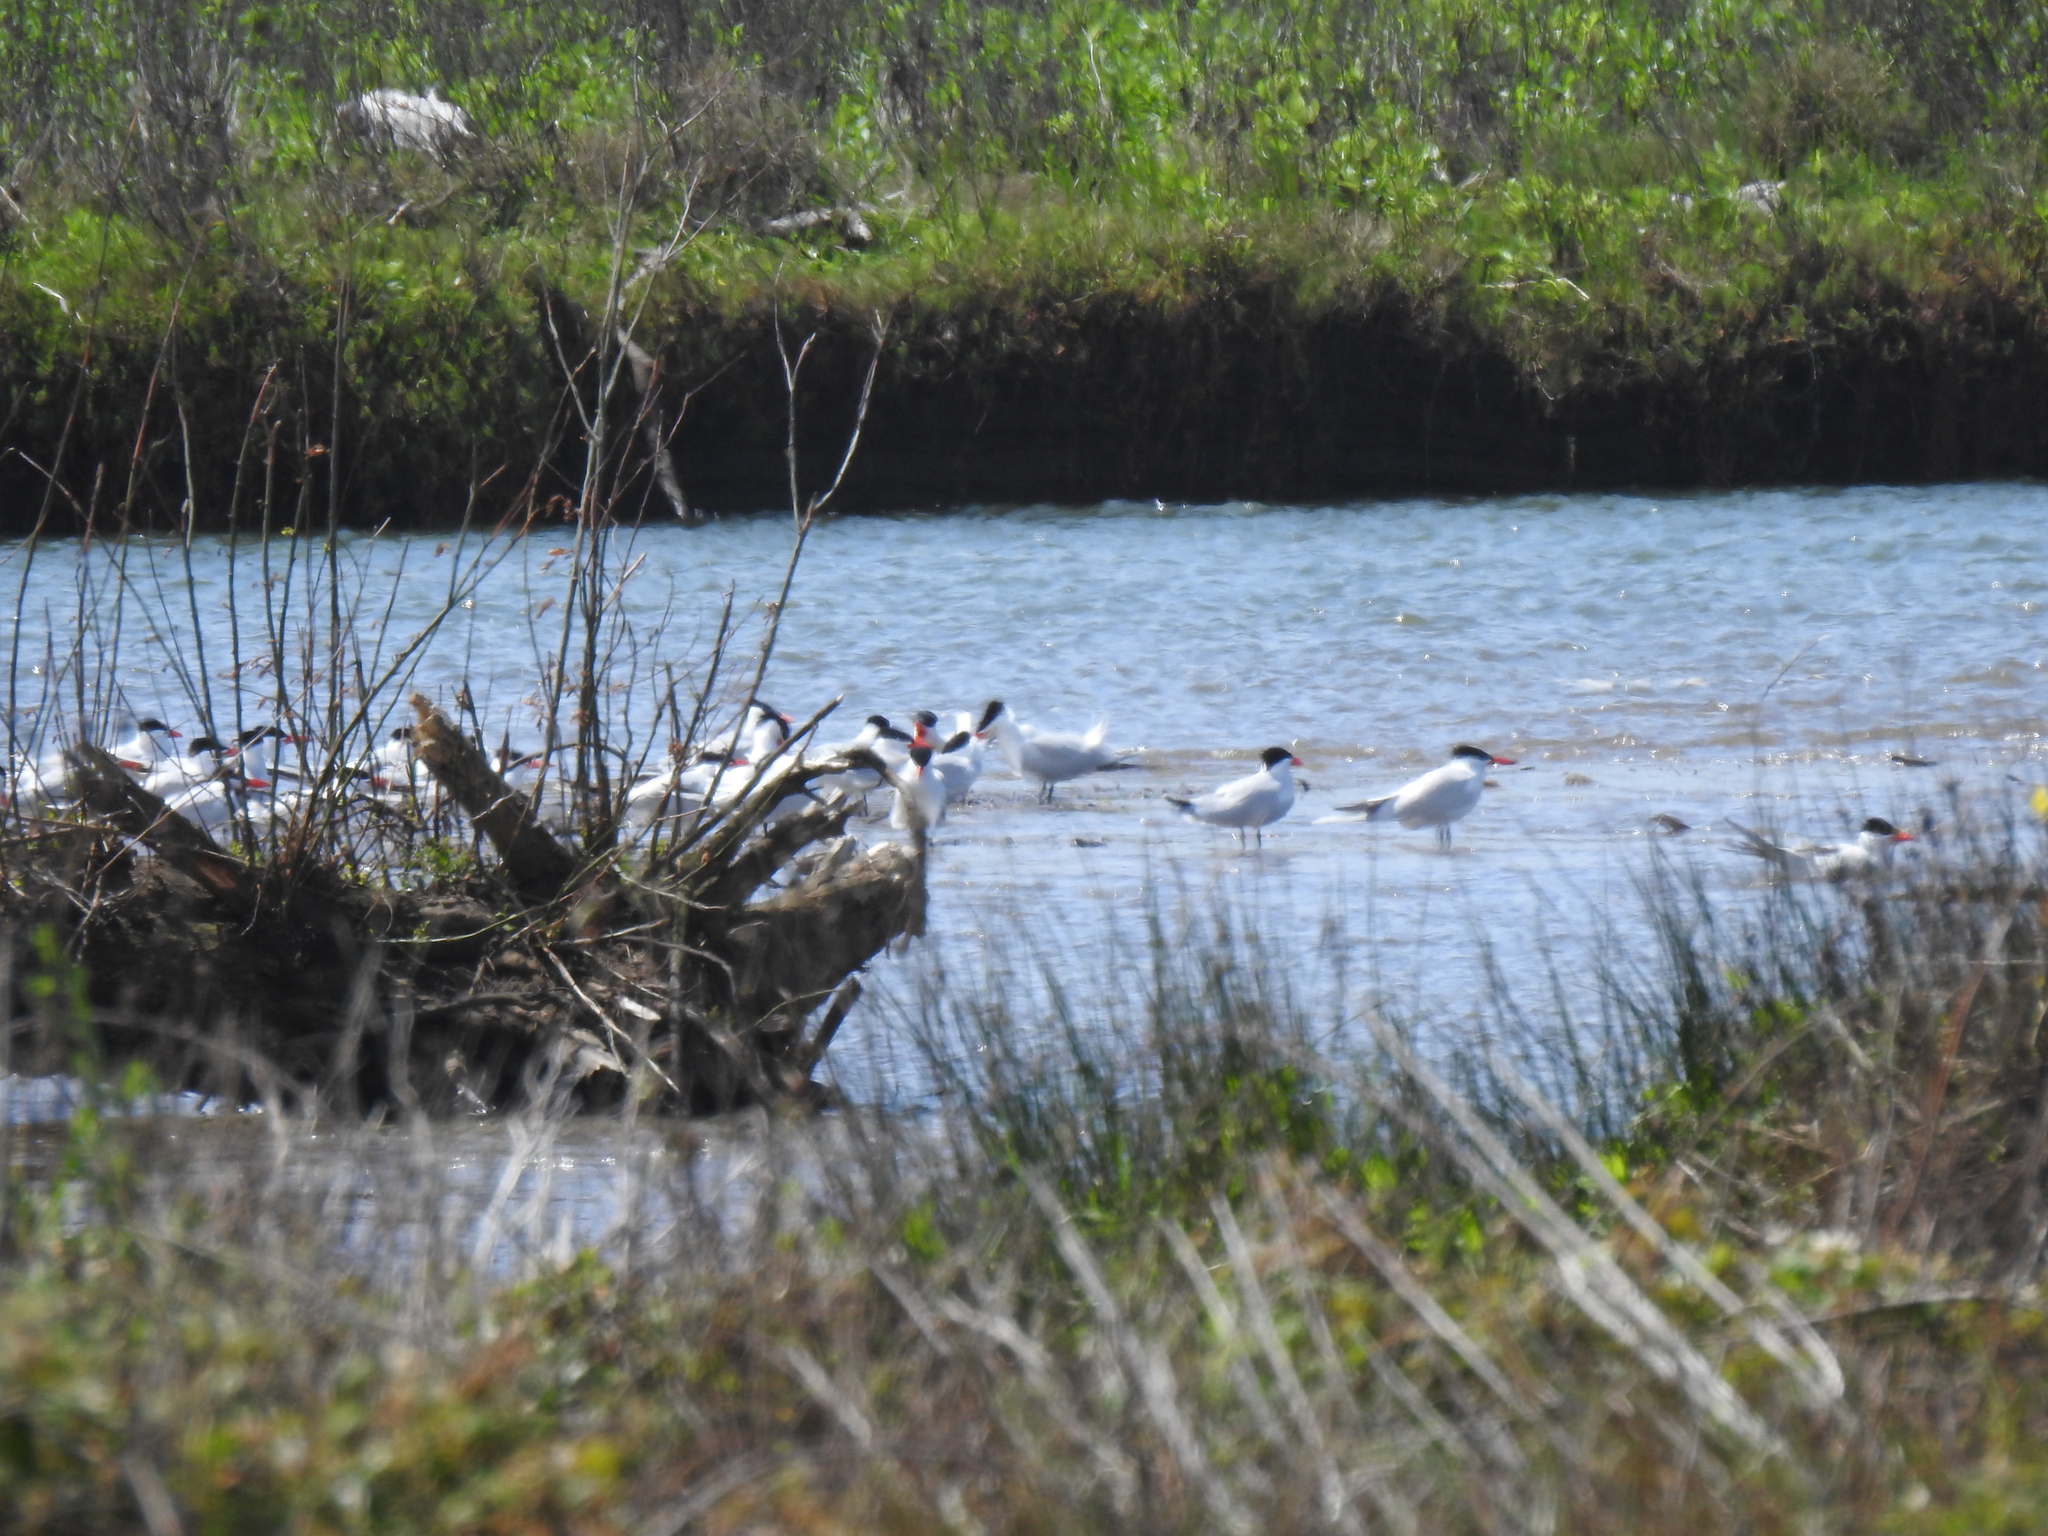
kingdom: Animalia
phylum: Chordata
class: Aves
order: Charadriiformes
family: Laridae
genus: Hydroprogne
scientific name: Hydroprogne caspia
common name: Caspian tern
